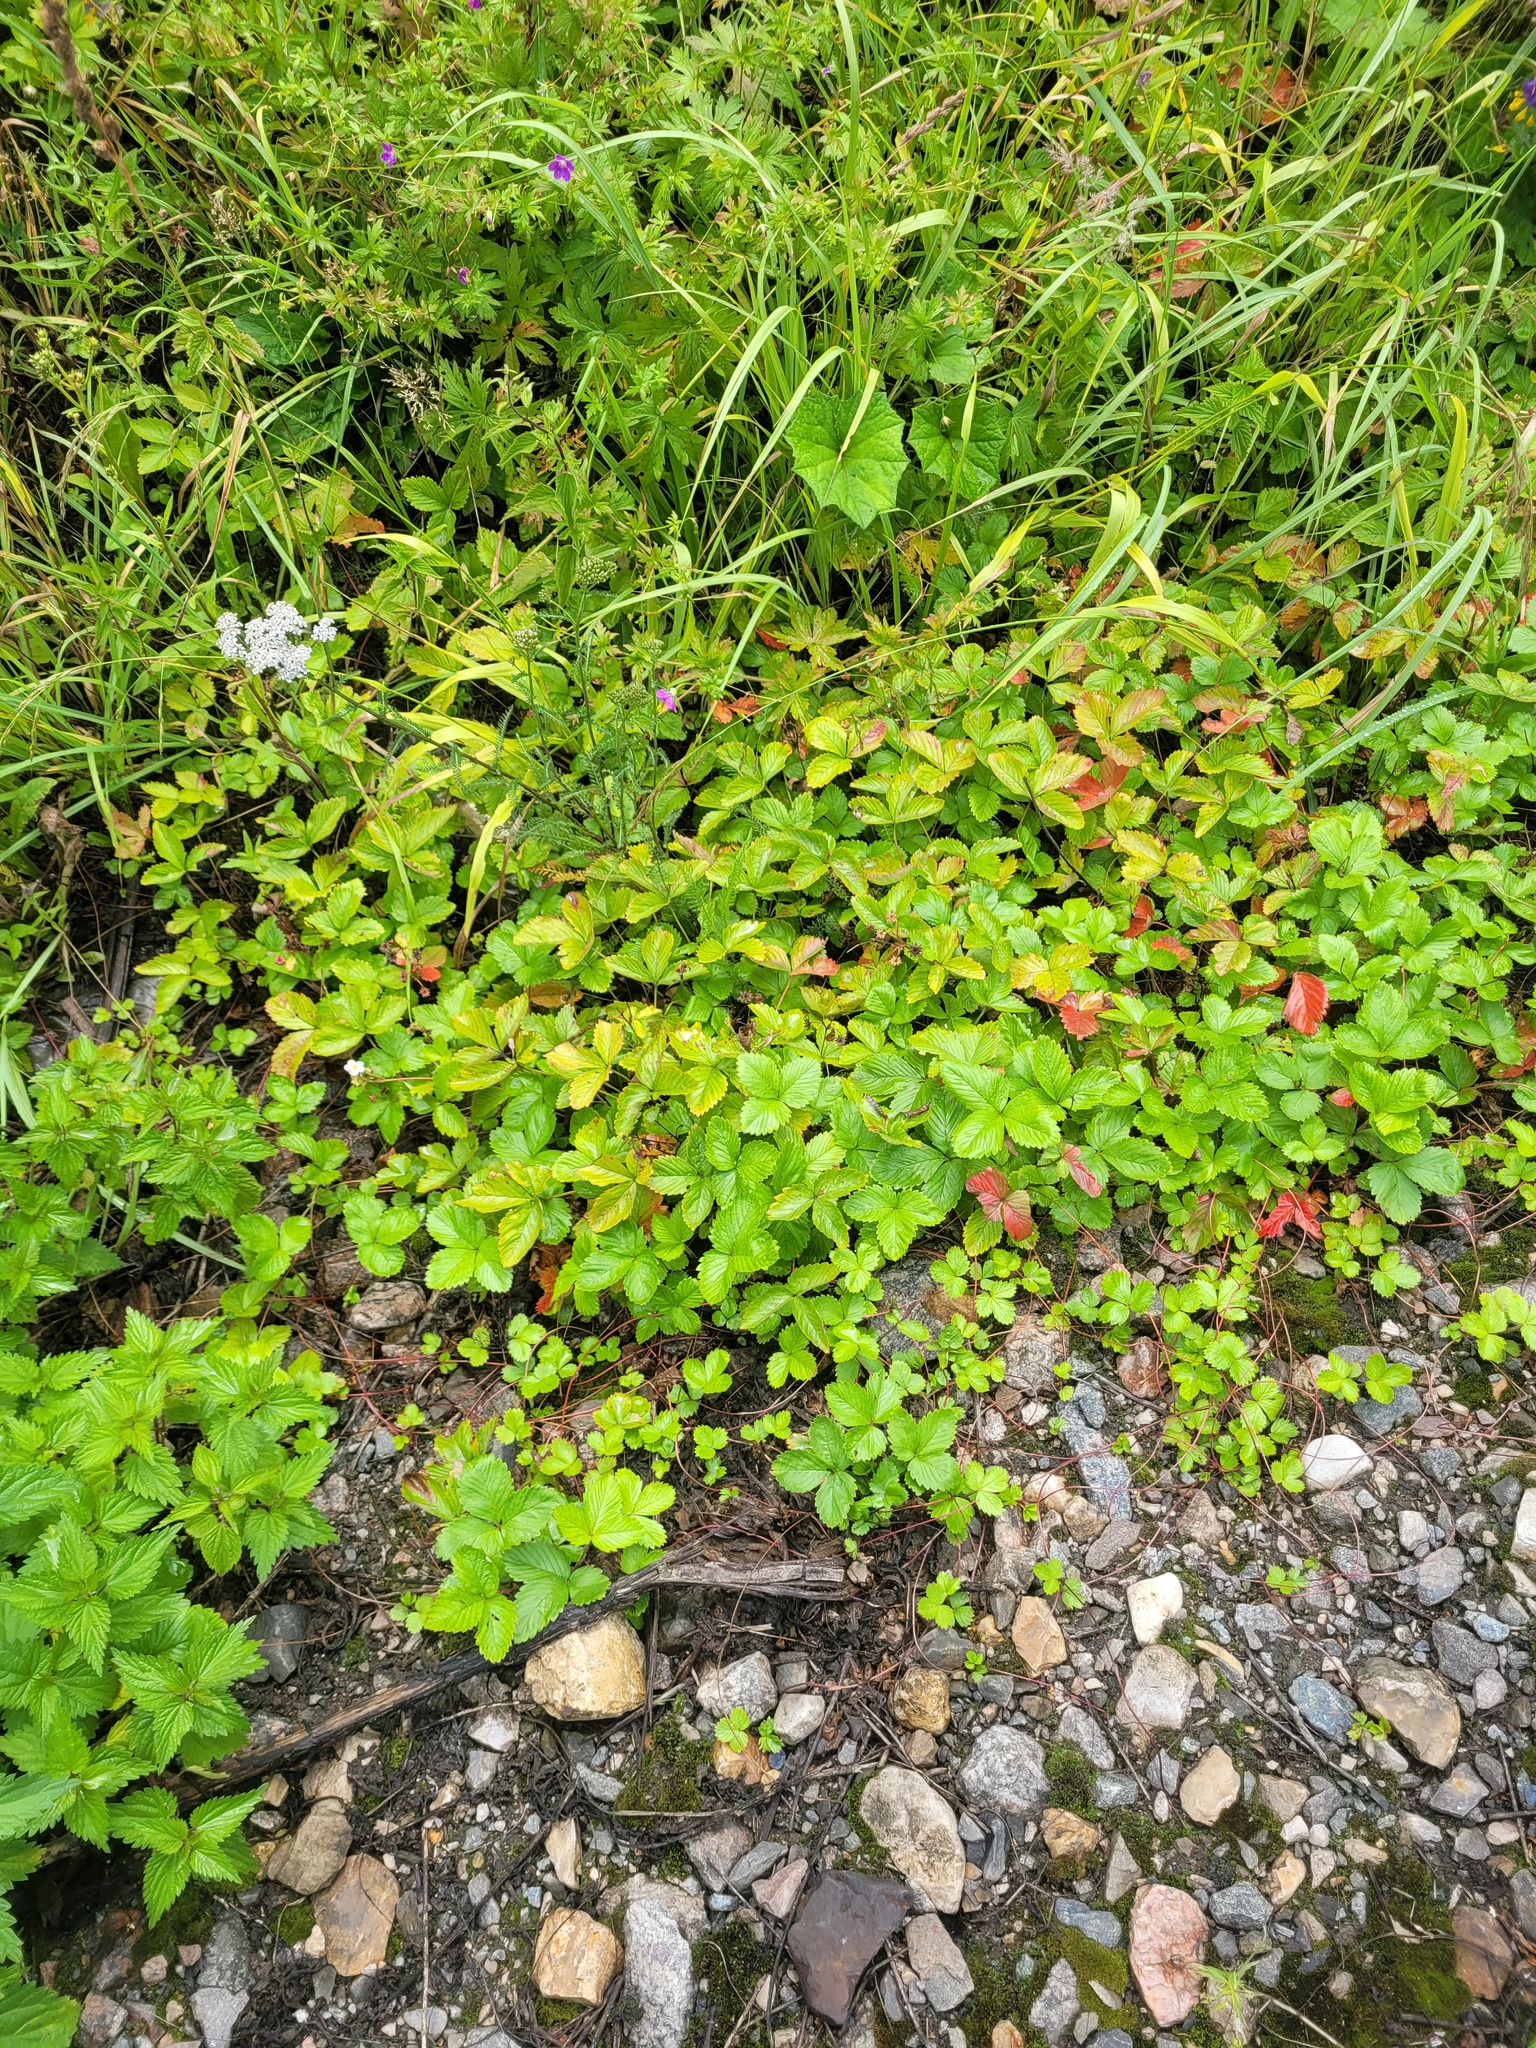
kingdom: Plantae
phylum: Tracheophyta
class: Magnoliopsida
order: Rosales
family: Rosaceae
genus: Fragaria
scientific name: Fragaria vesca
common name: Wild strawberry
